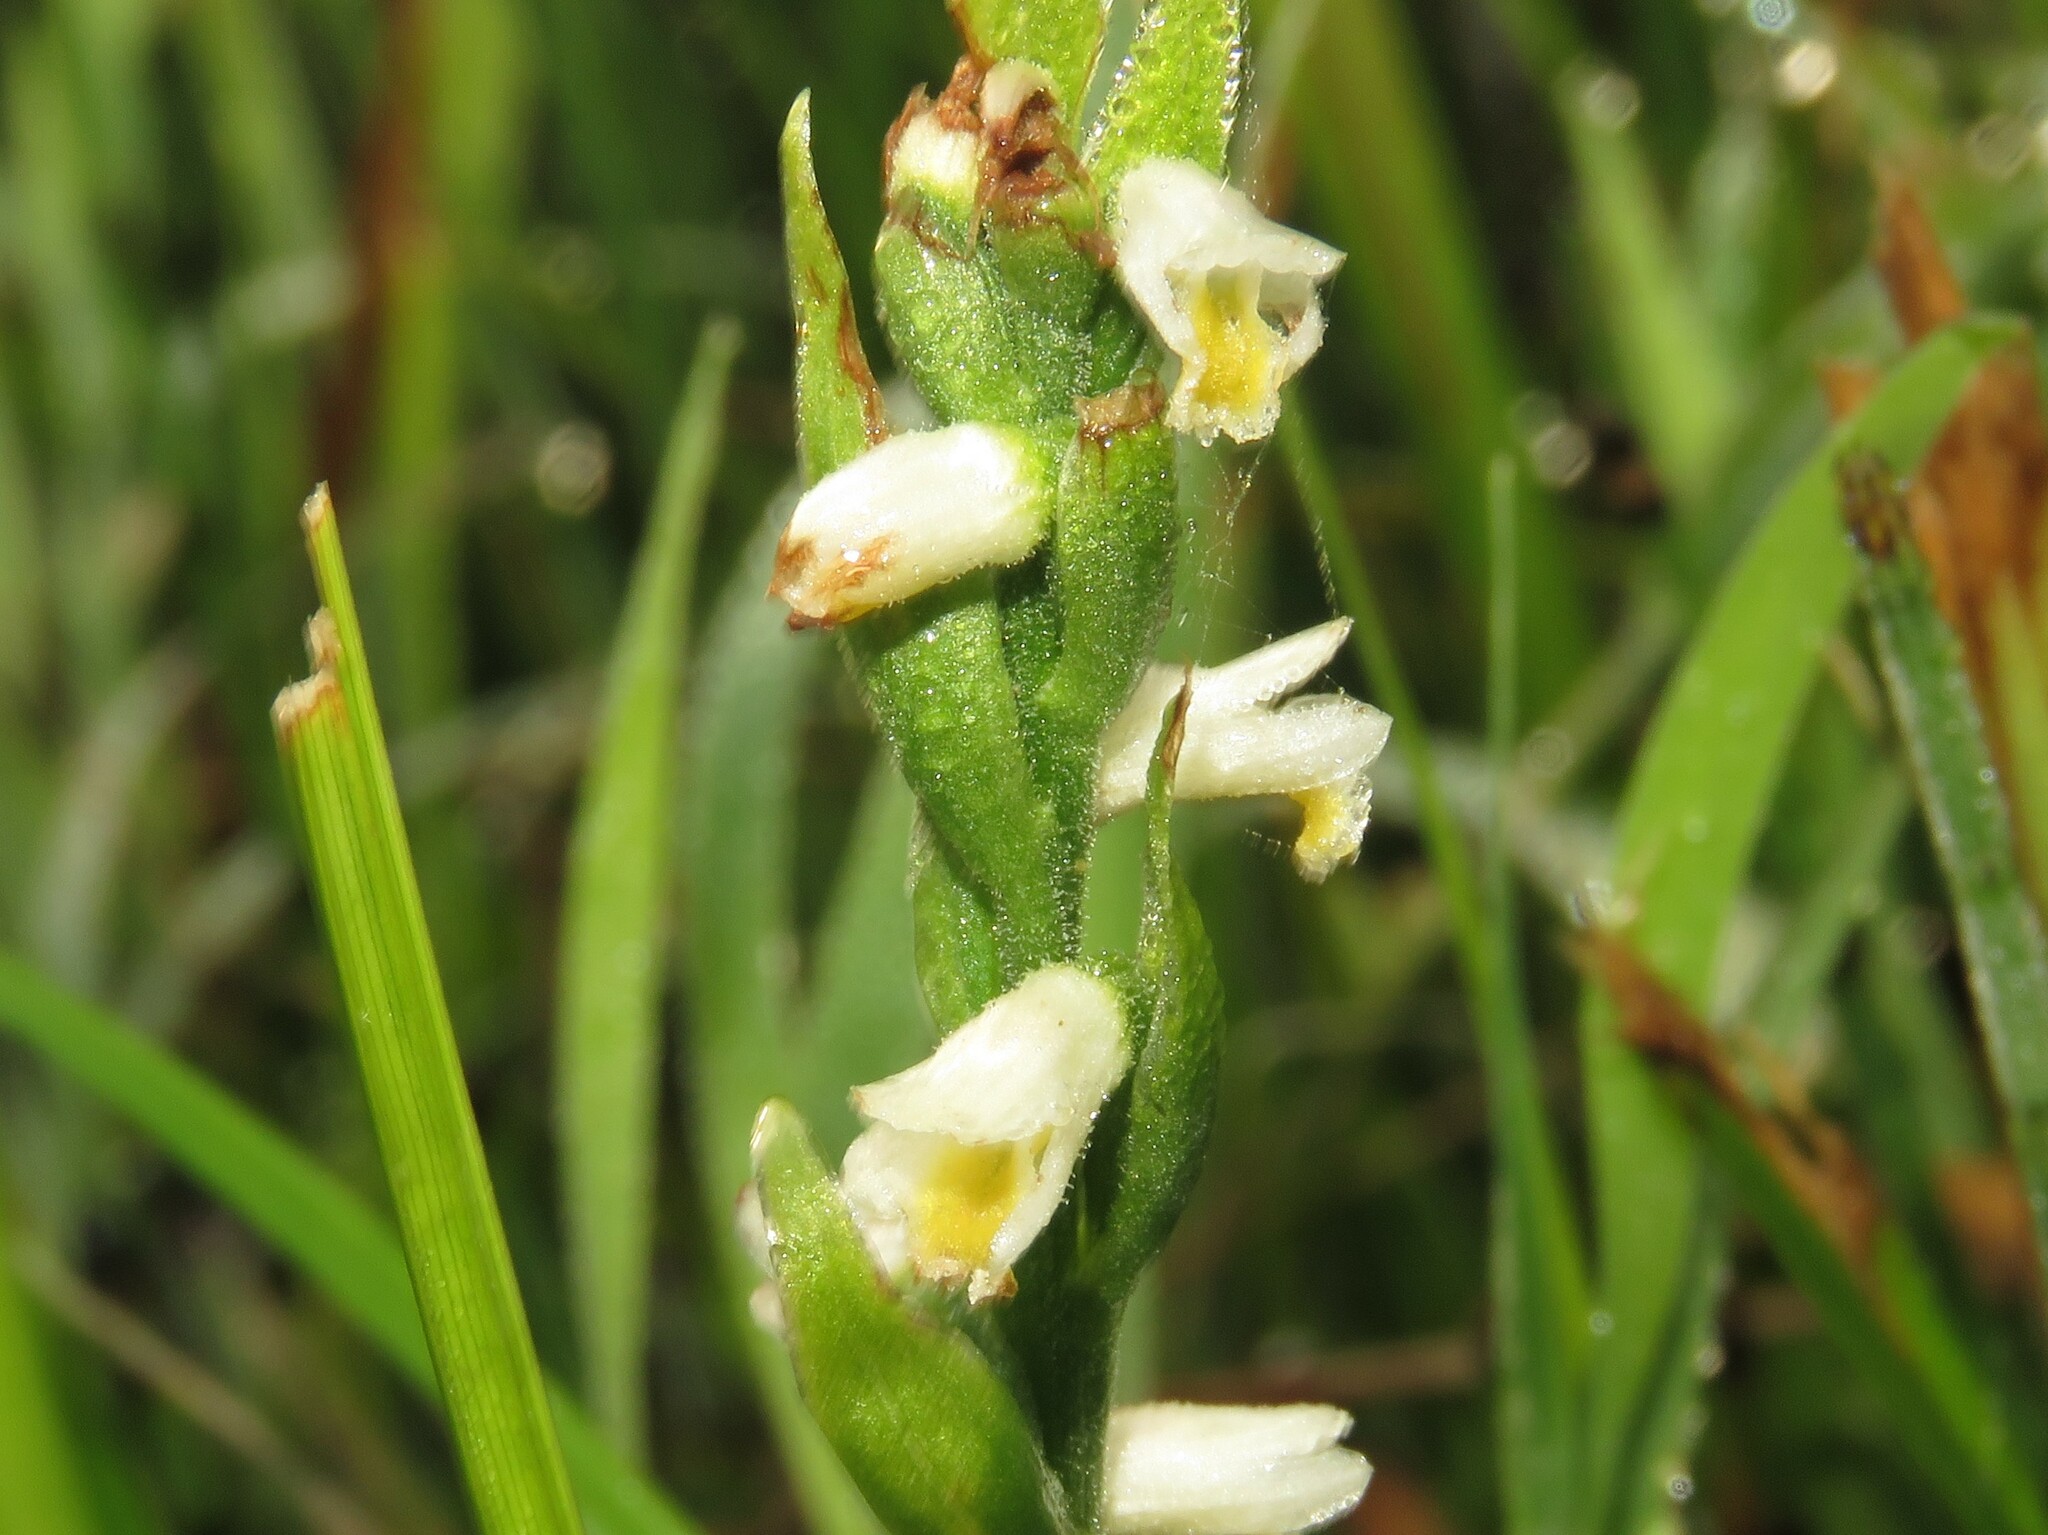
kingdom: Plantae
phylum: Tracheophyta
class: Liliopsida
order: Asparagales
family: Orchidaceae
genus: Spiranthes
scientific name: Spiranthes lucida
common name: Broad-leaved ladies'-tresses
